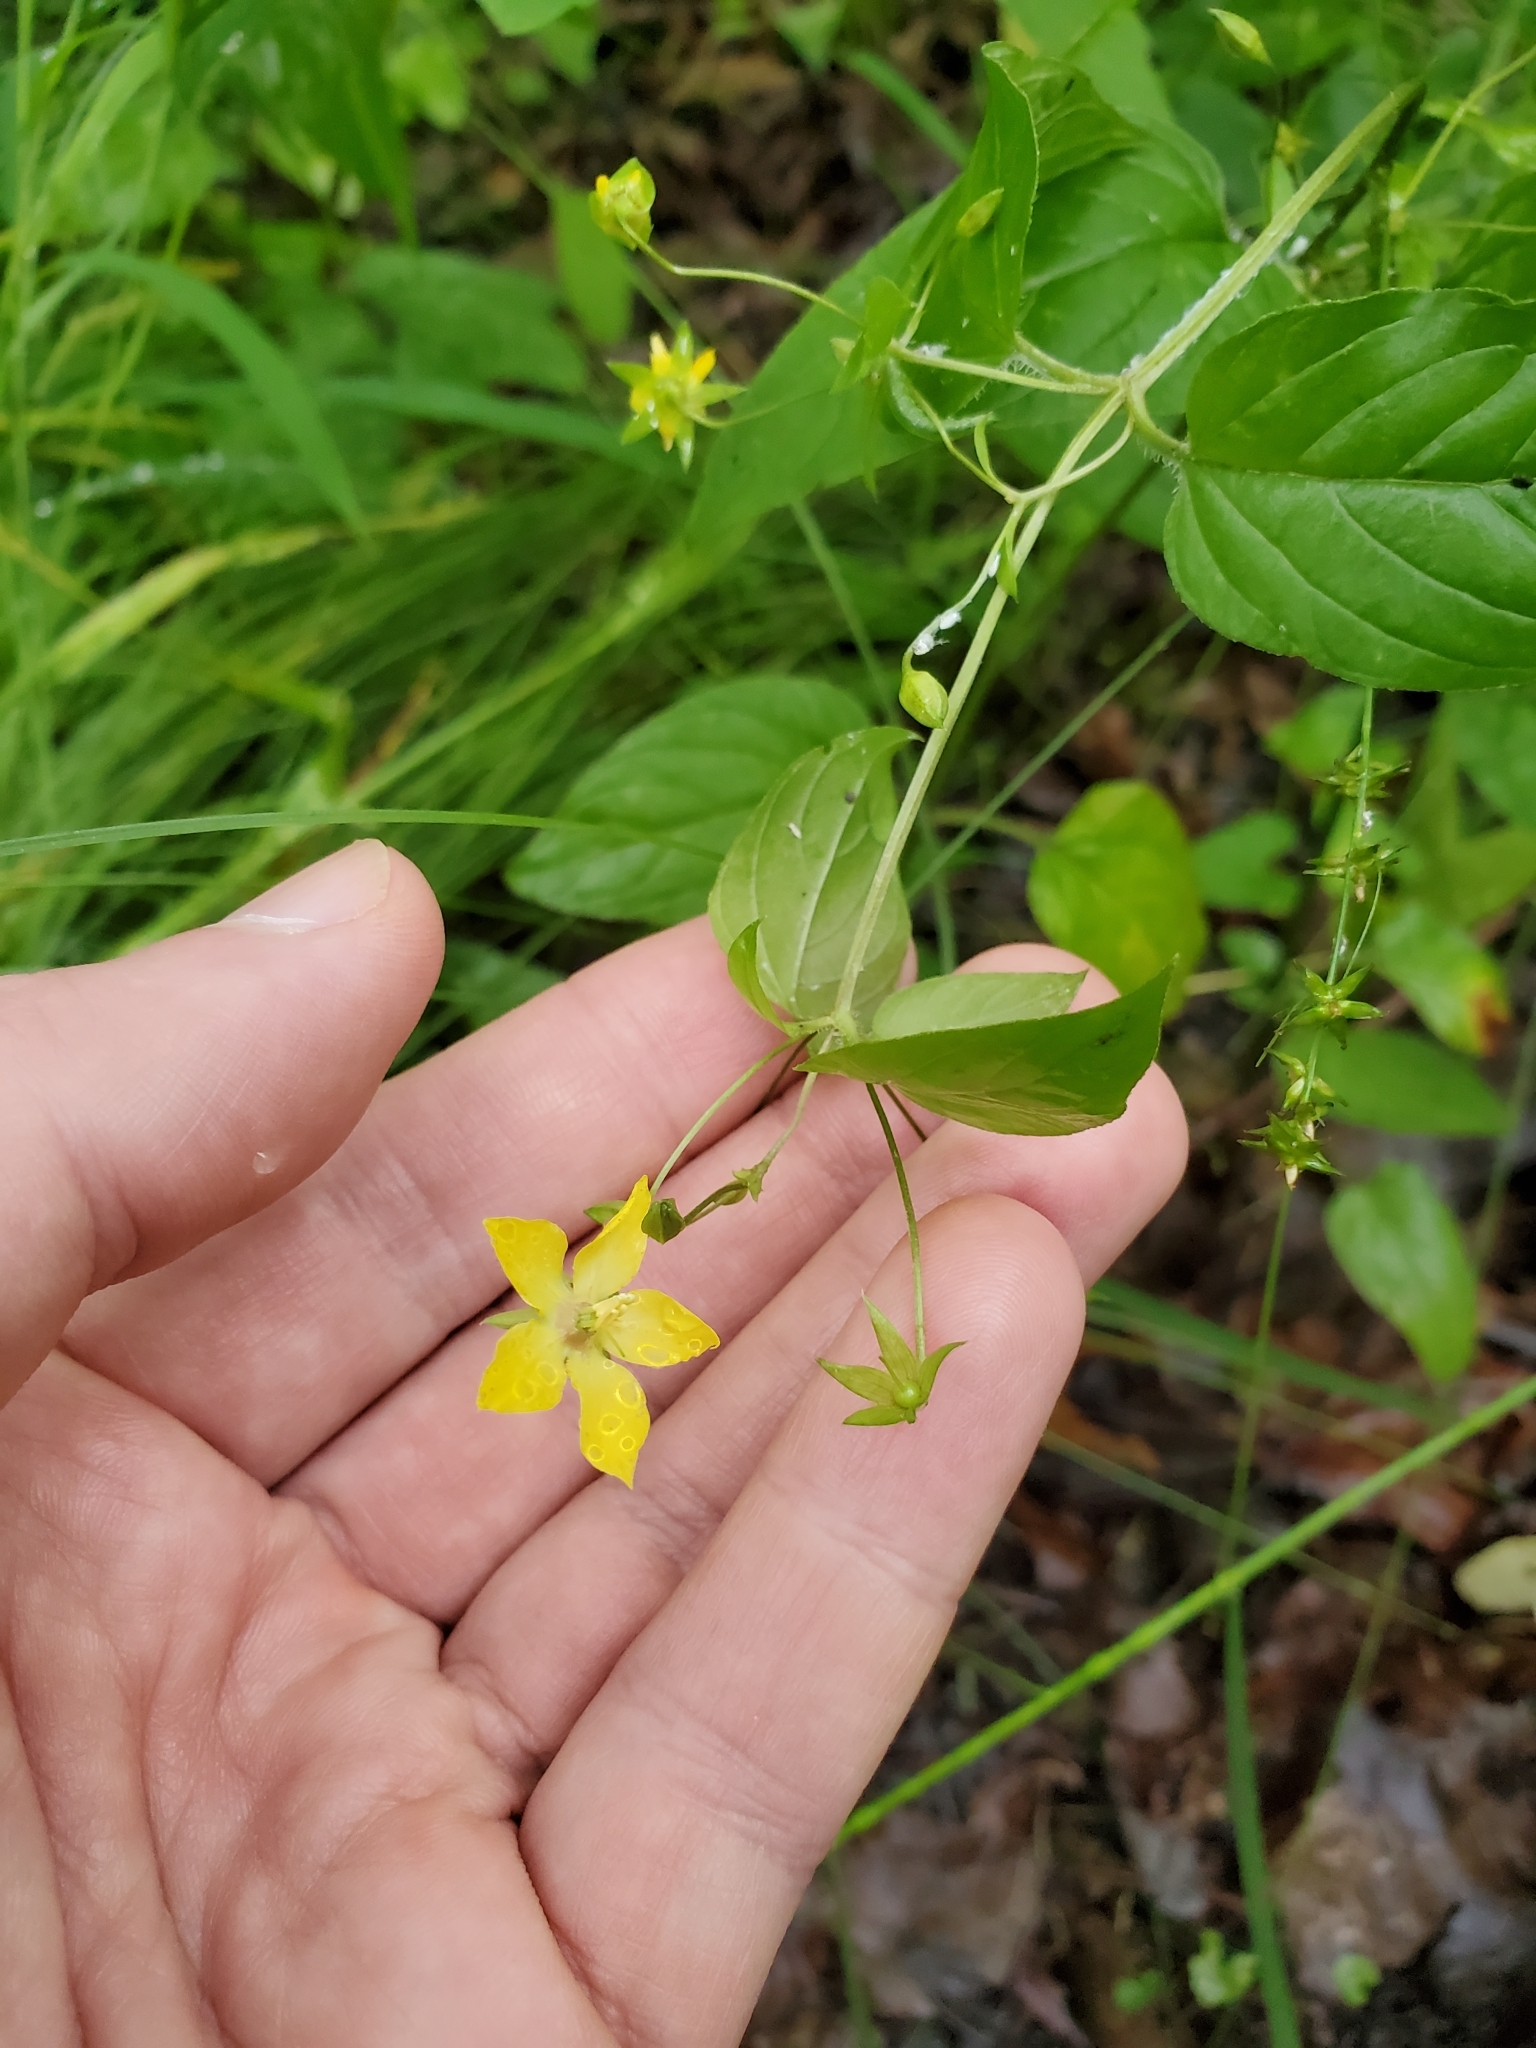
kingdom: Plantae
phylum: Tracheophyta
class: Magnoliopsida
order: Ericales
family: Primulaceae
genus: Lysimachia
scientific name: Lysimachia ciliata
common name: Fringed loosestrife
